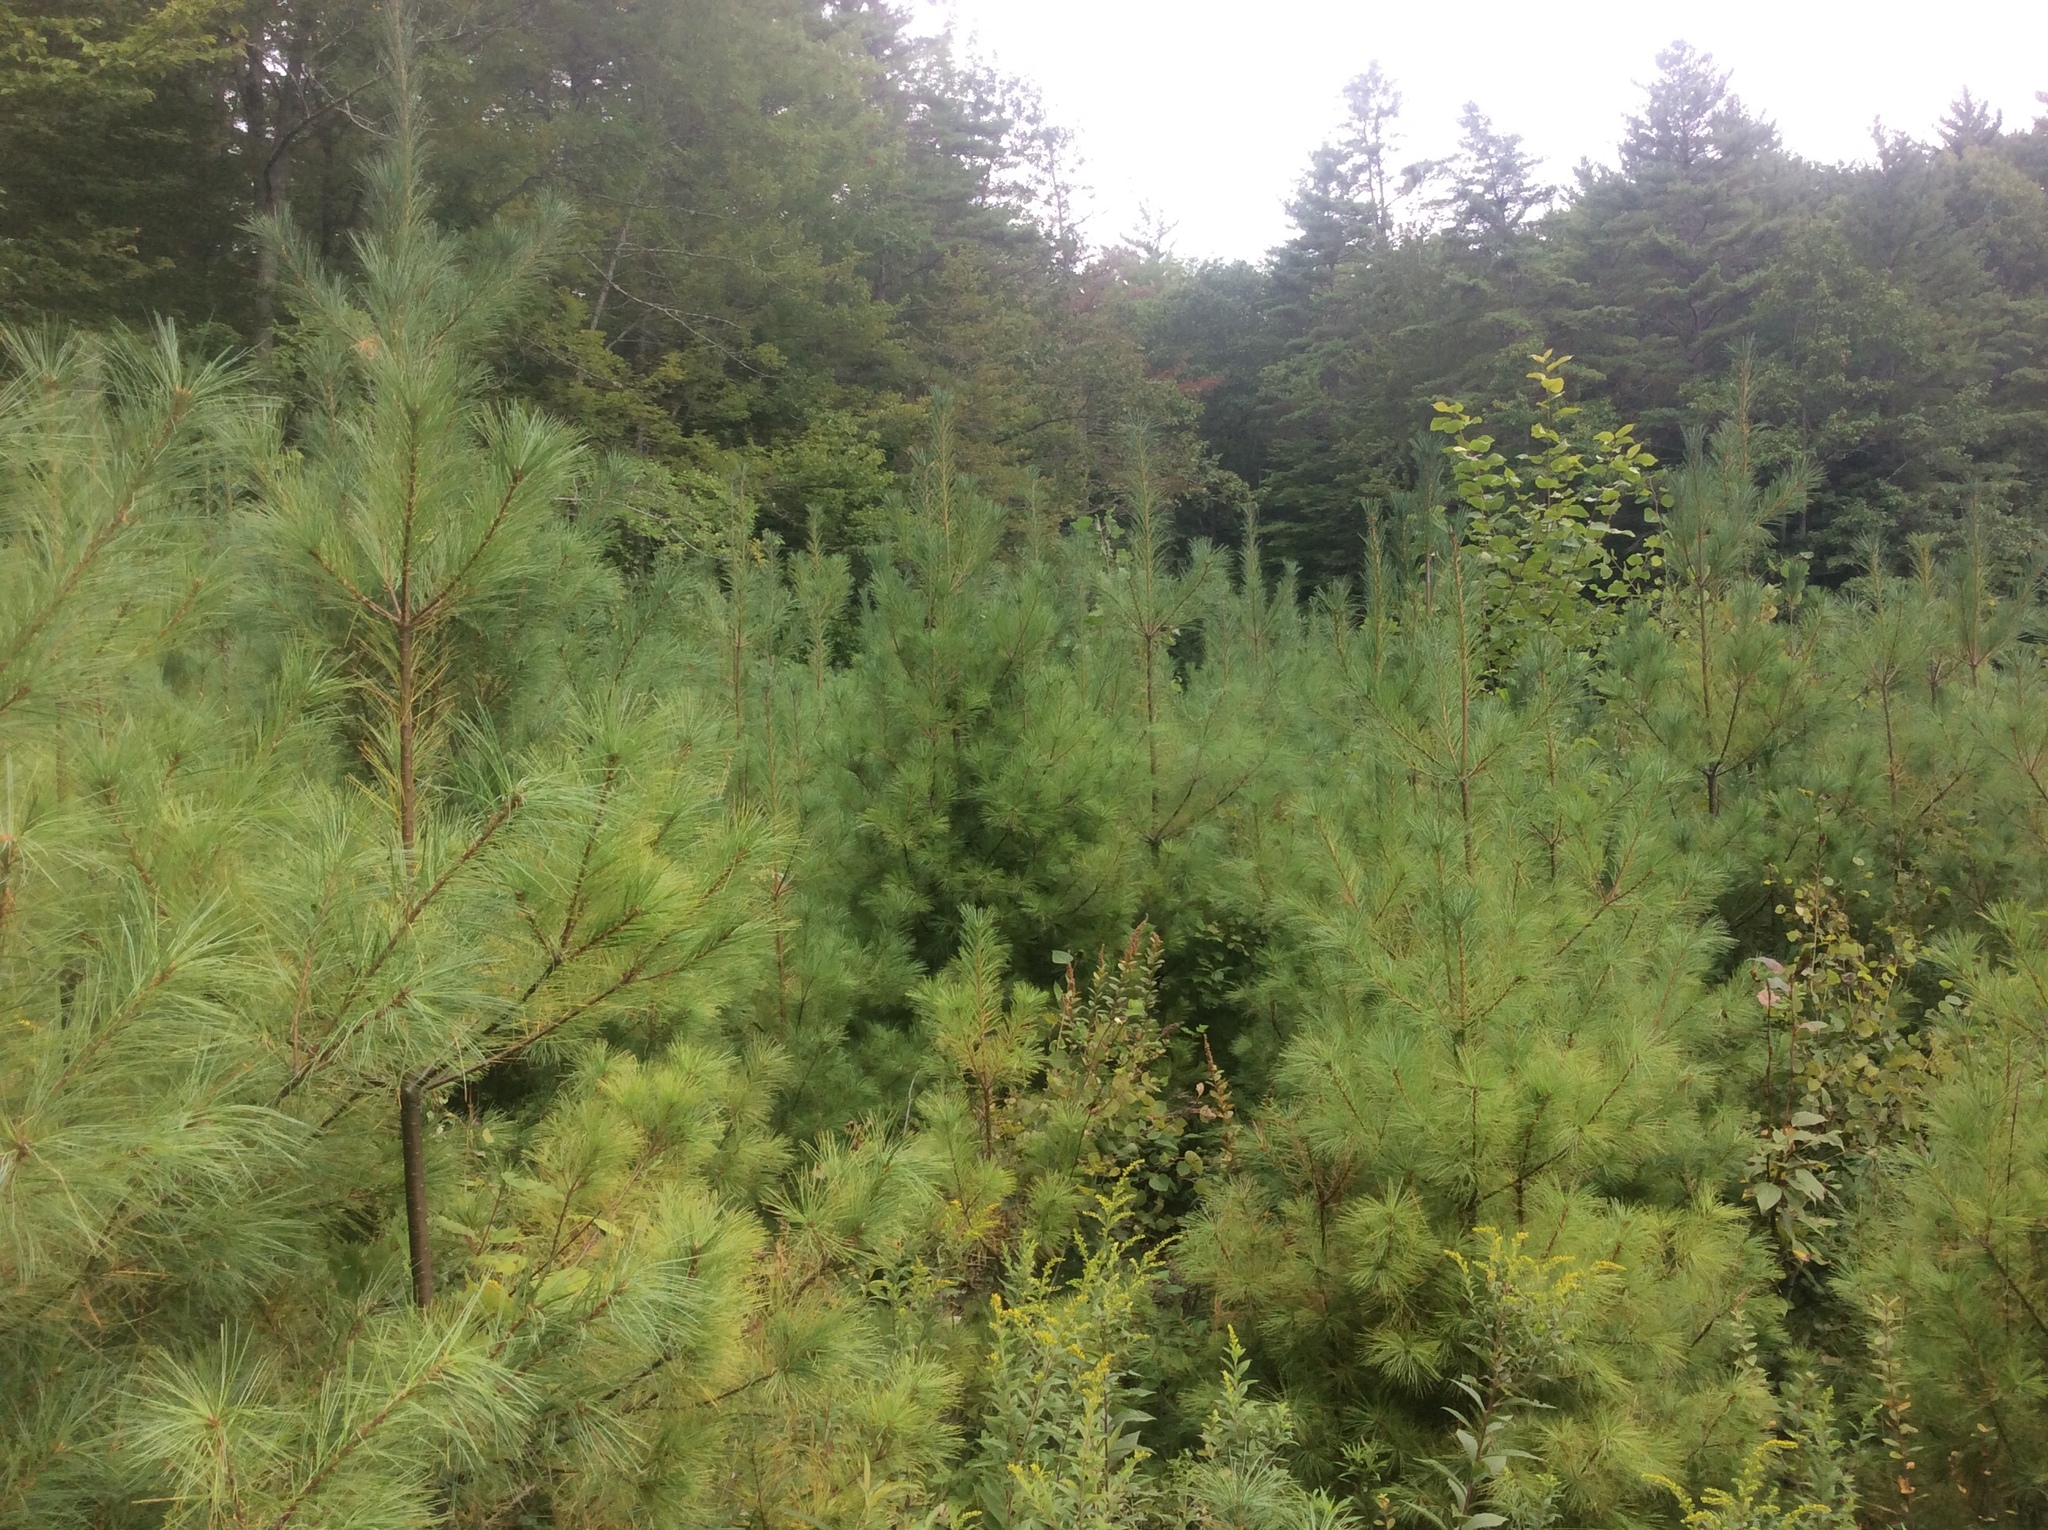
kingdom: Plantae
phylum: Tracheophyta
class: Pinopsida
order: Pinales
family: Pinaceae
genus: Pinus
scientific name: Pinus strobus
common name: Weymouth pine
